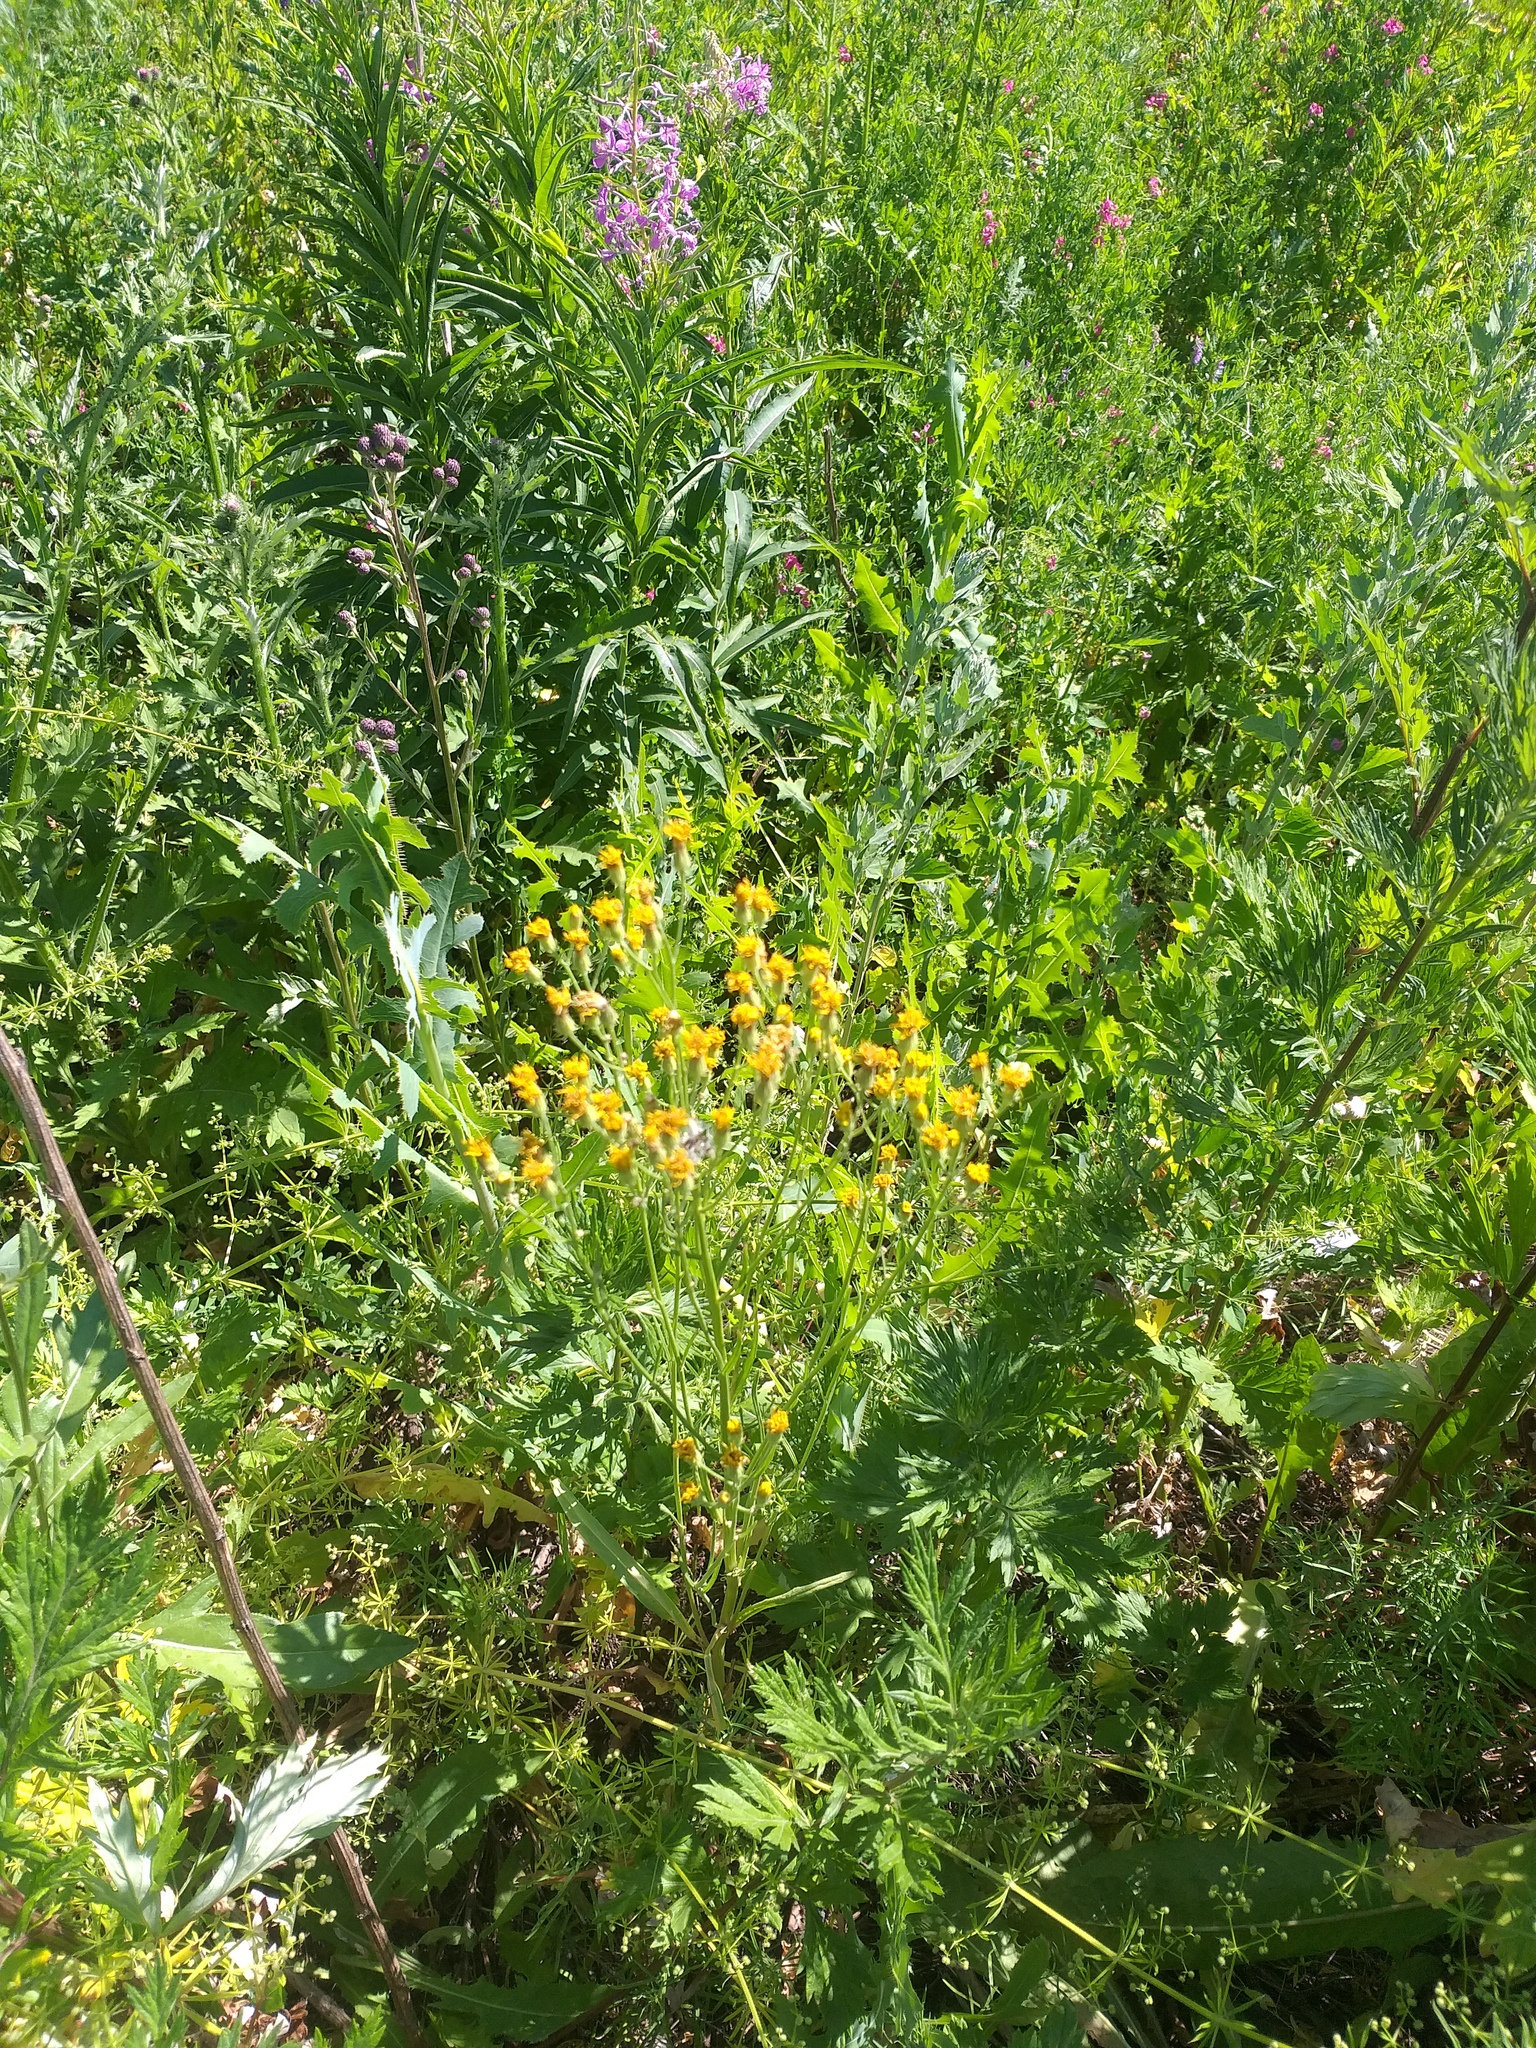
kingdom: Plantae
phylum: Tracheophyta
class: Magnoliopsida
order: Asterales
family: Asteraceae
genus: Crepis
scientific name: Crepis tectorum
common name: Narrow-leaved hawk's-beard
